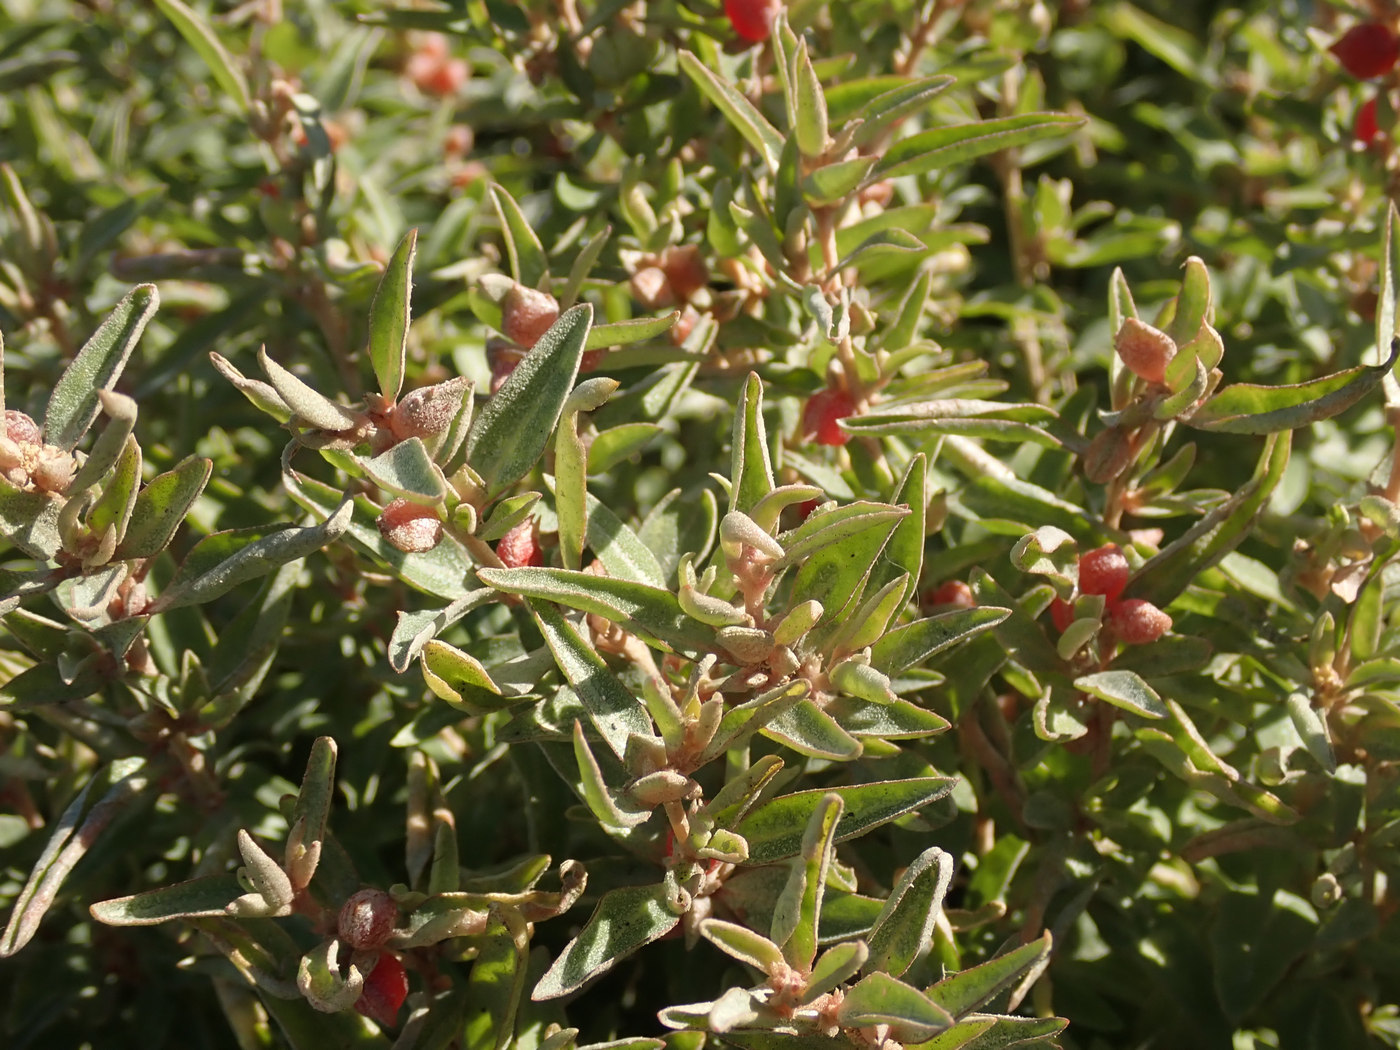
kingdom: Plantae
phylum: Tracheophyta
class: Magnoliopsida
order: Caryophyllales
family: Amaranthaceae
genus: Atriplex
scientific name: Atriplex semibaccata
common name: Australian saltbush
